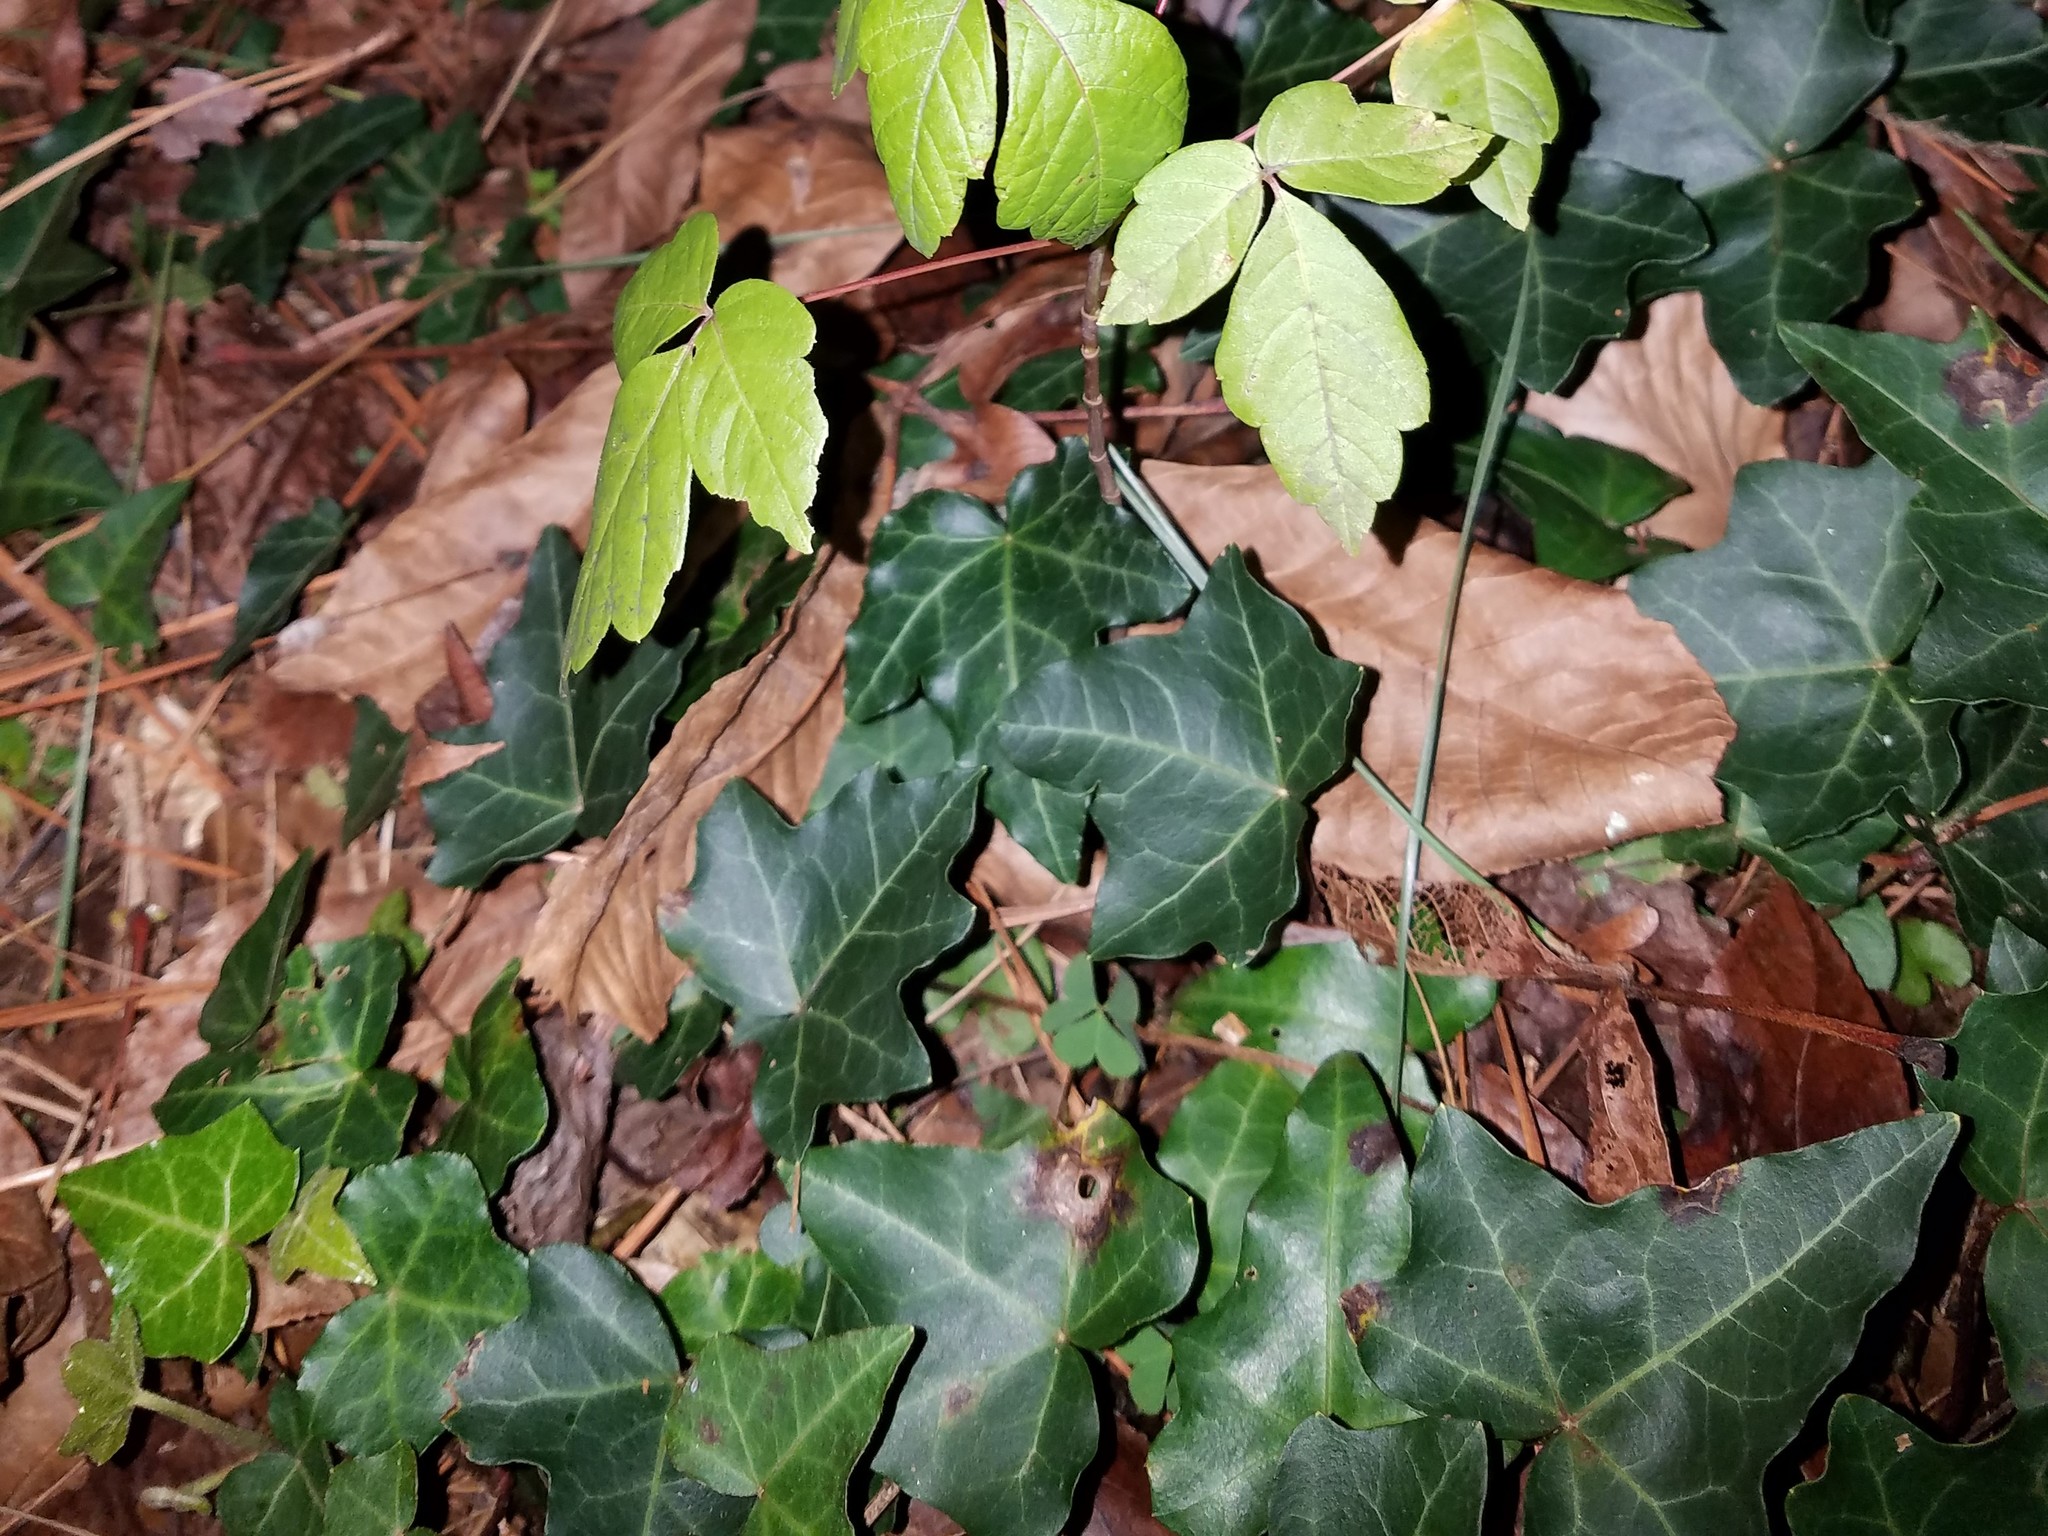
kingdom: Plantae
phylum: Tracheophyta
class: Magnoliopsida
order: Apiales
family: Araliaceae
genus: Hedera
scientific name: Hedera helix
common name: Ivy
